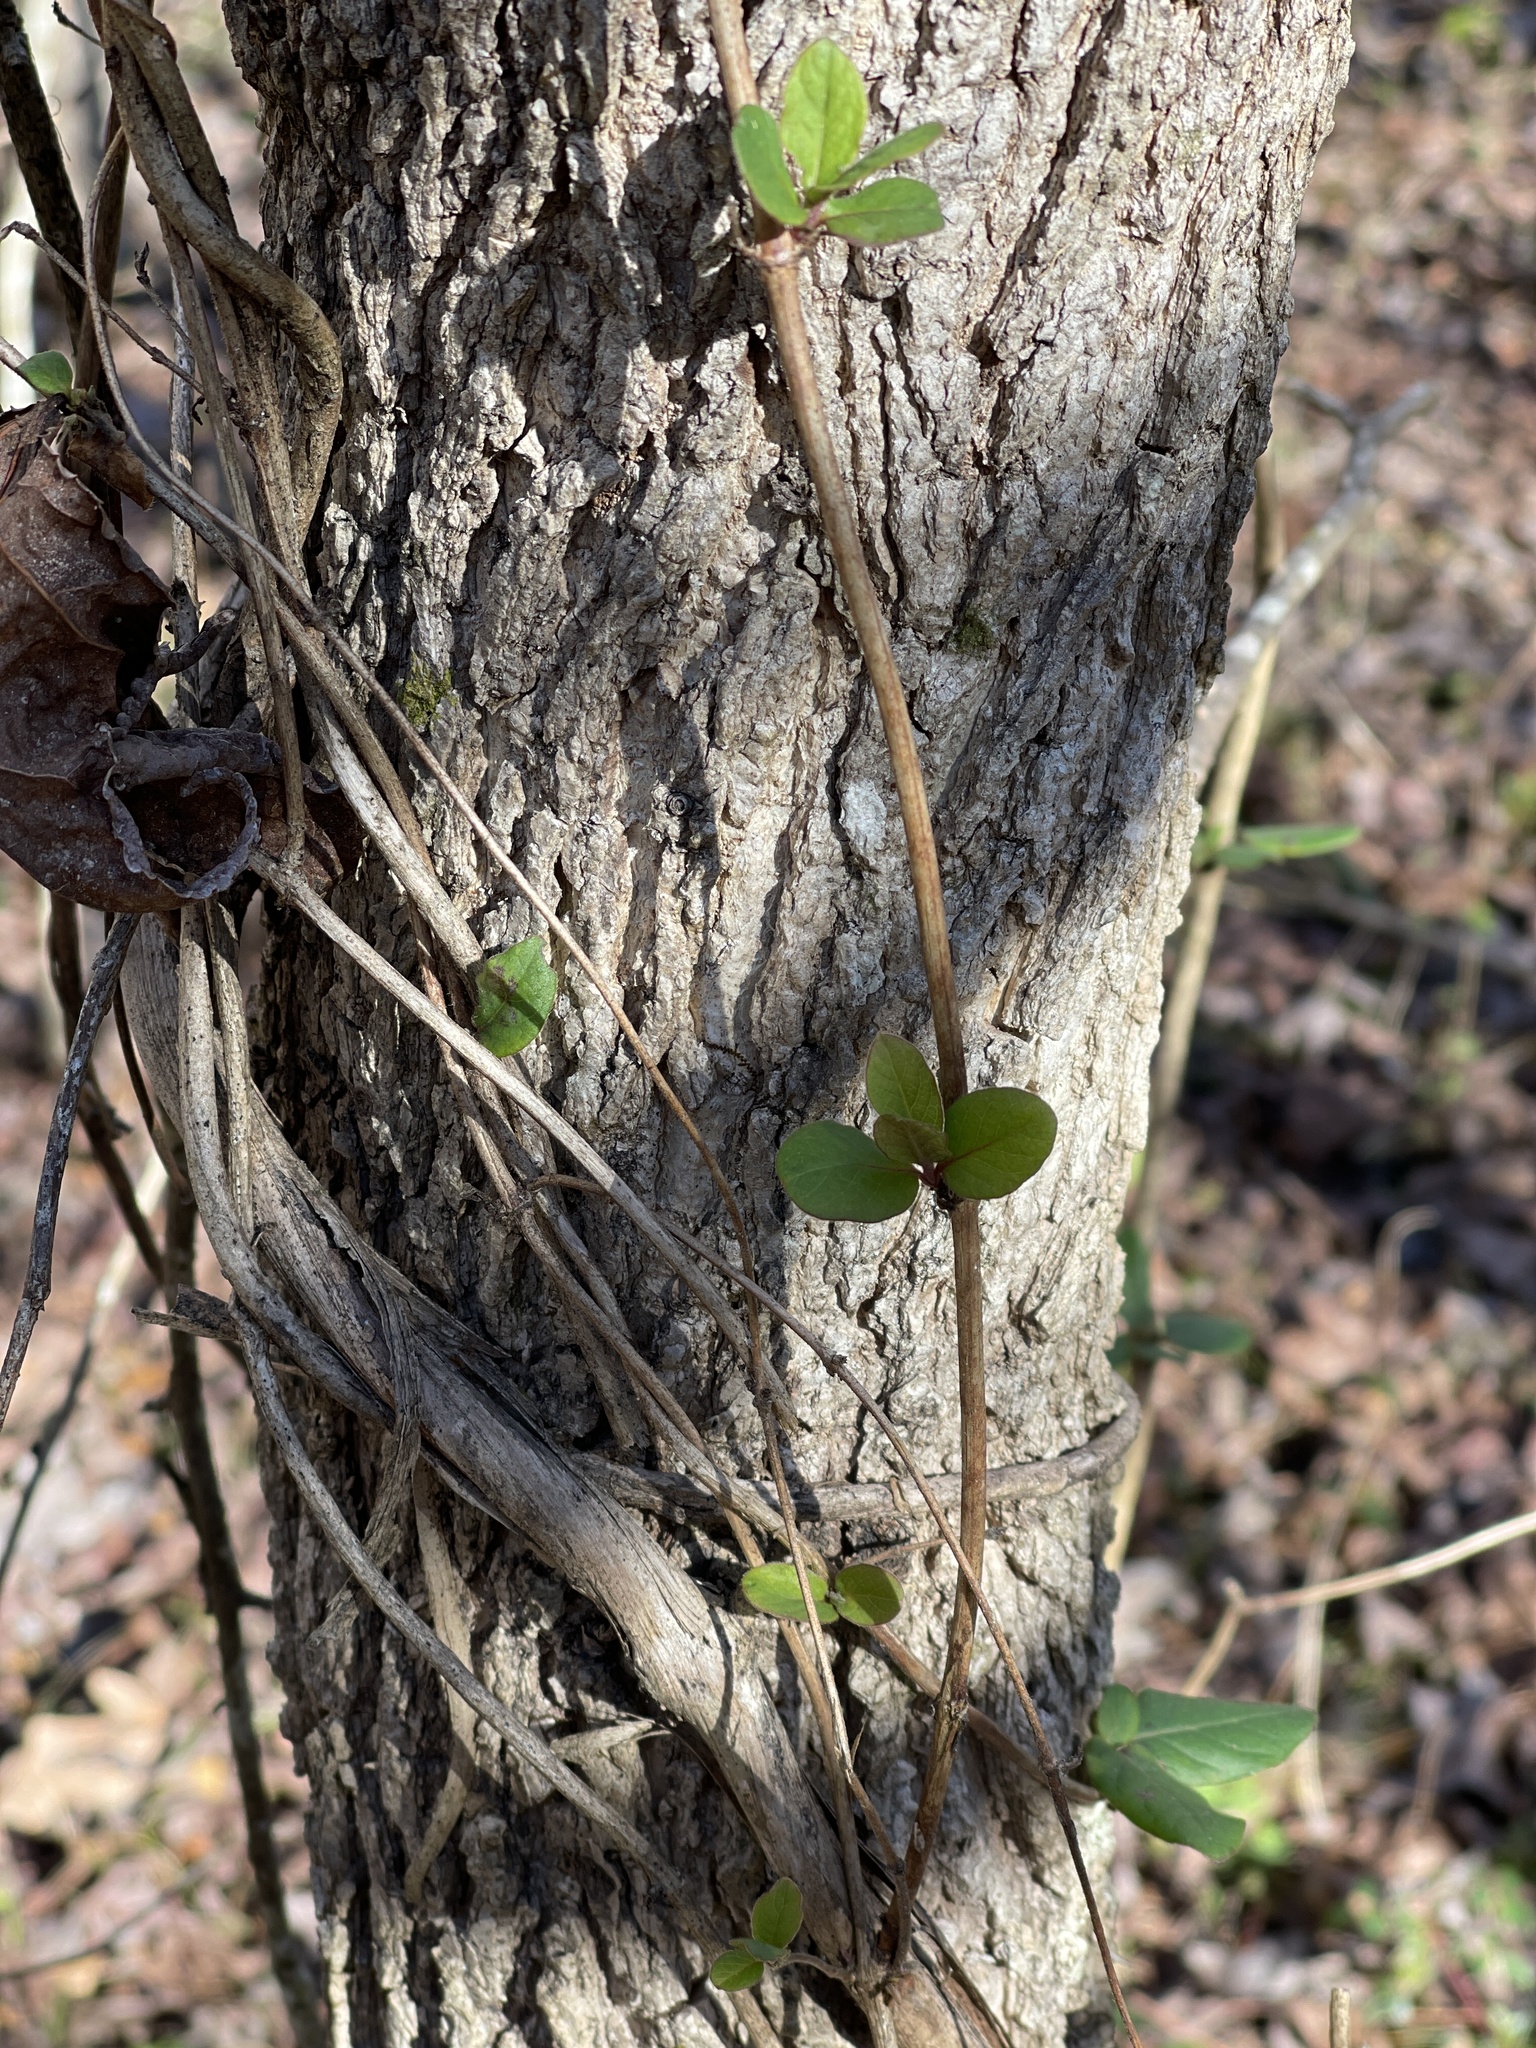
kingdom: Plantae
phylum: Tracheophyta
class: Magnoliopsida
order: Dipsacales
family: Caprifoliaceae
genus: Lonicera
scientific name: Lonicera japonica
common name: Japanese honeysuckle
